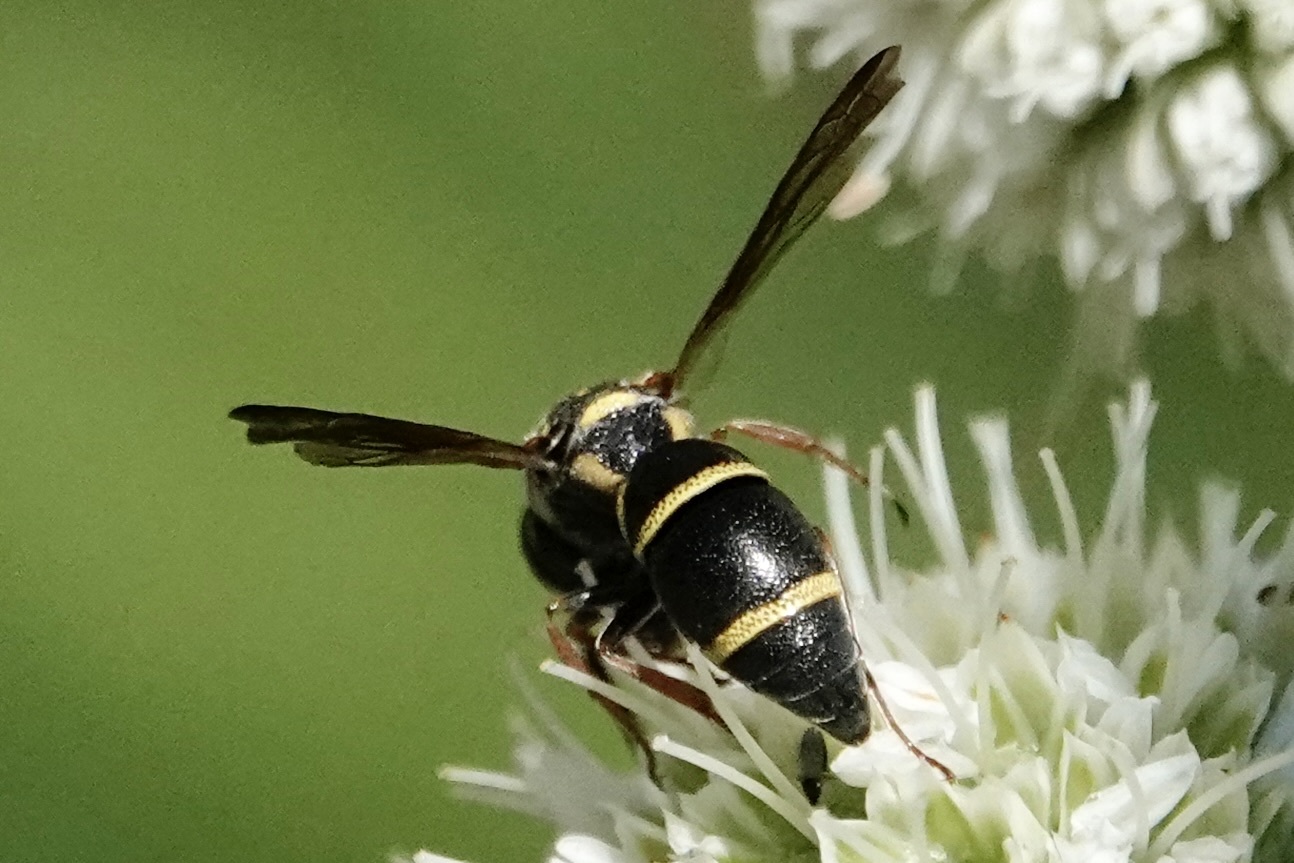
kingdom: Animalia
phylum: Arthropoda
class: Insecta
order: Hymenoptera
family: Eumenidae
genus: Parancistrocerus
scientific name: Parancistrocerus fulvipes
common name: Potter wasp
